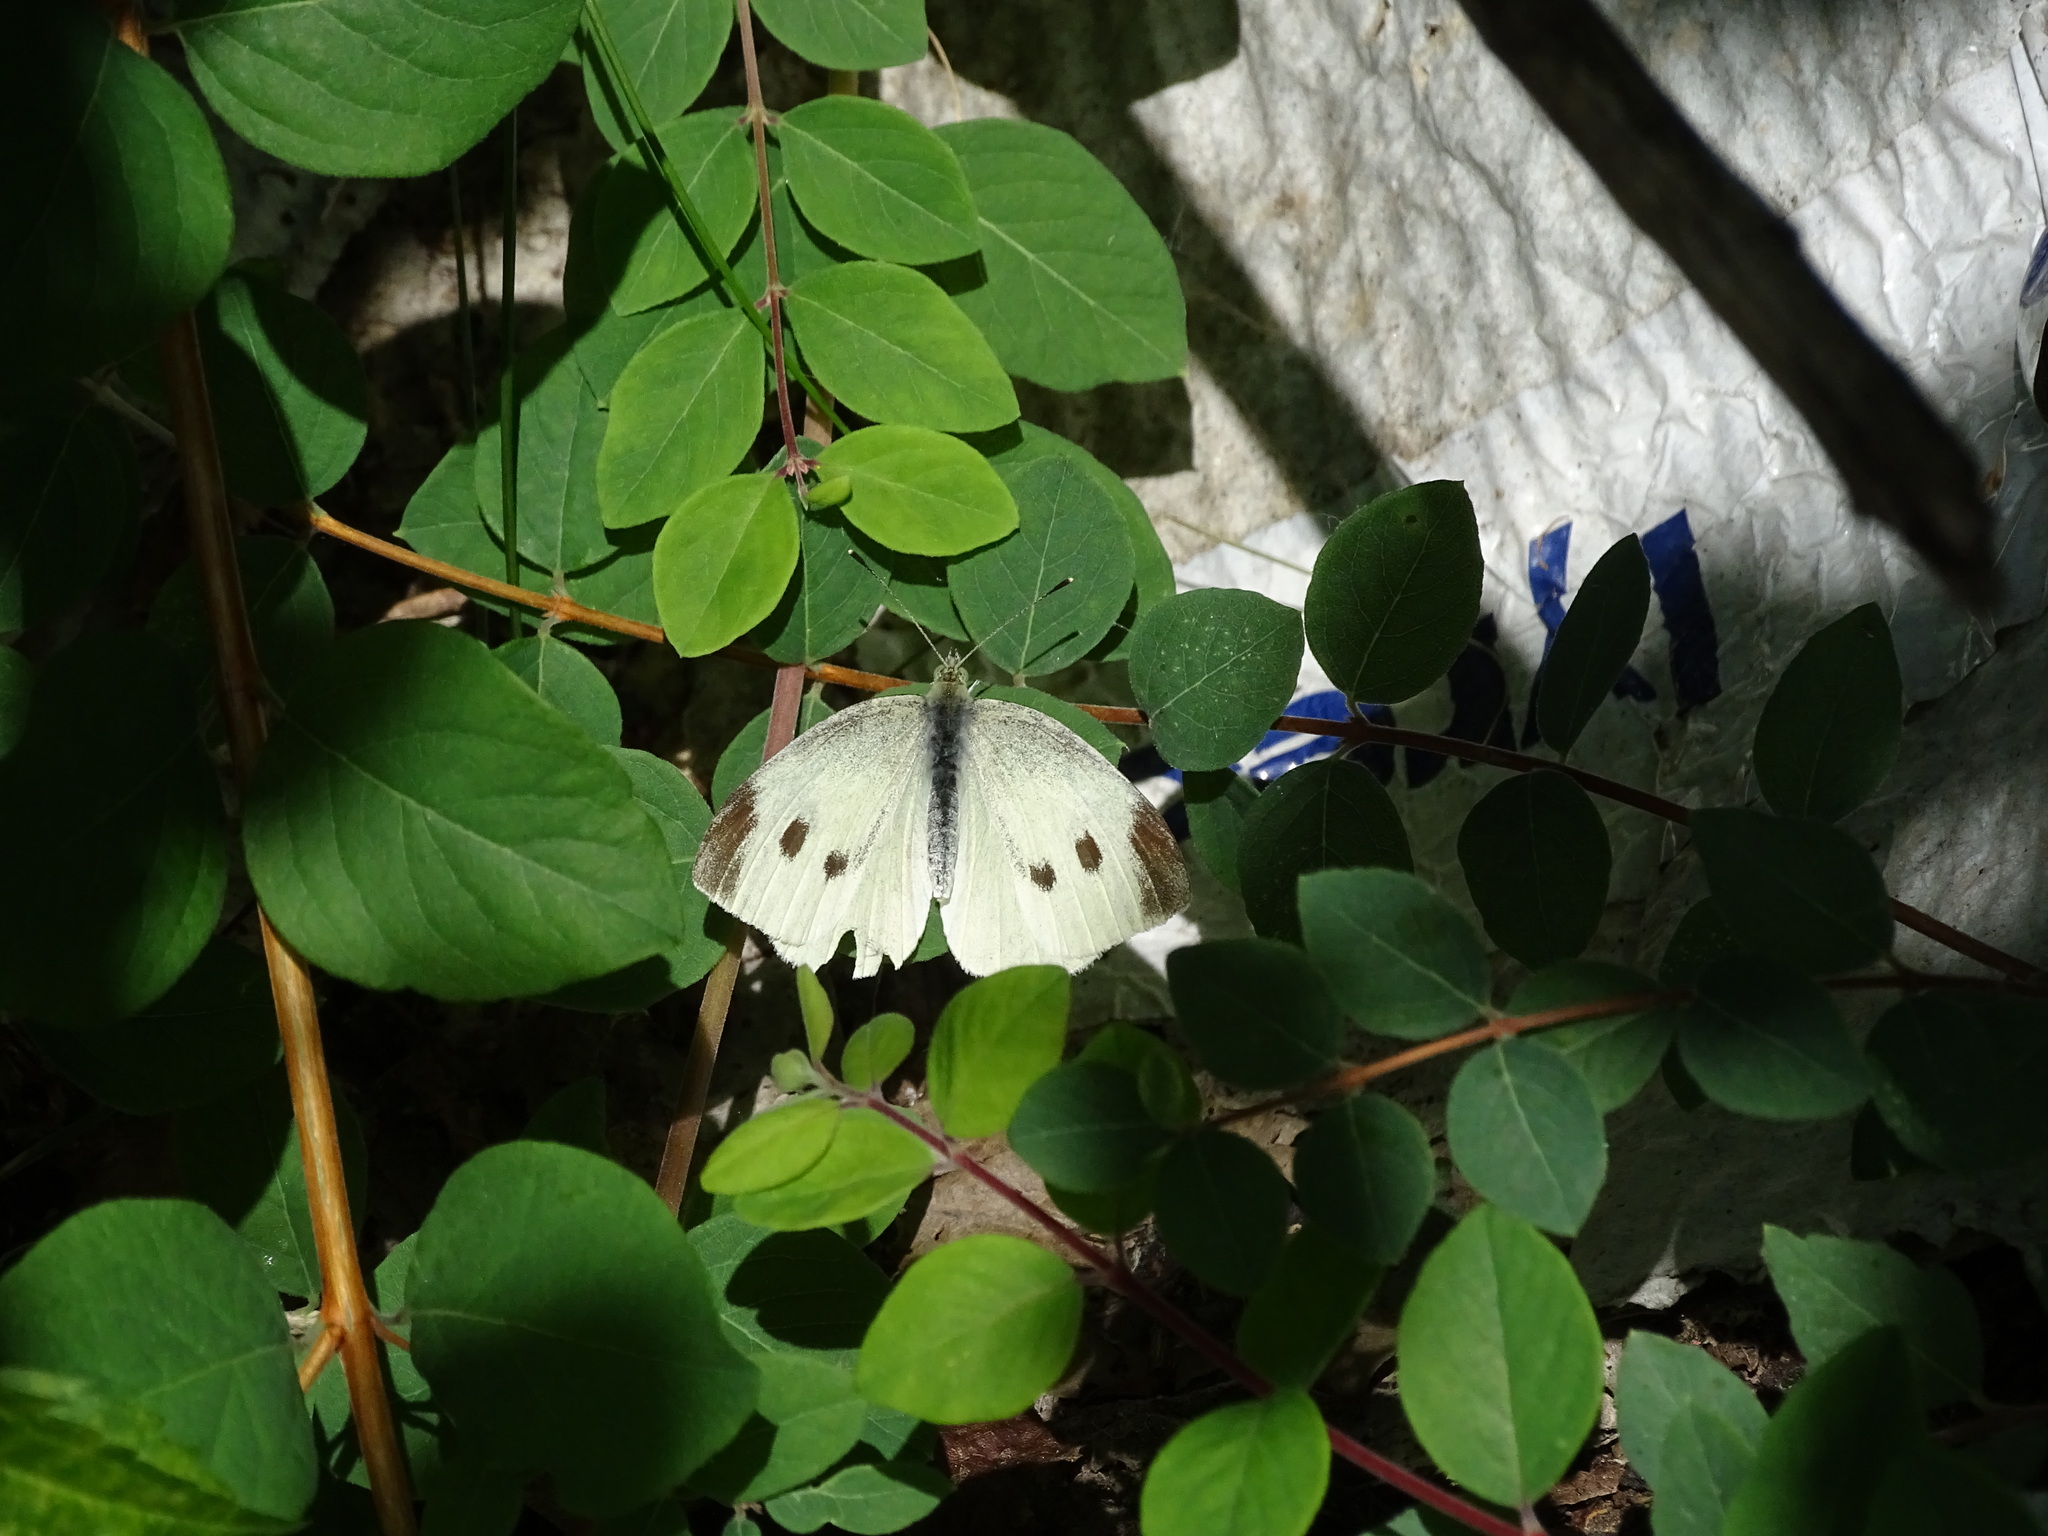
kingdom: Animalia
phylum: Arthropoda
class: Insecta
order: Lepidoptera
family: Pieridae
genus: Pieris
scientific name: Pieris mannii
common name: Southern small white
